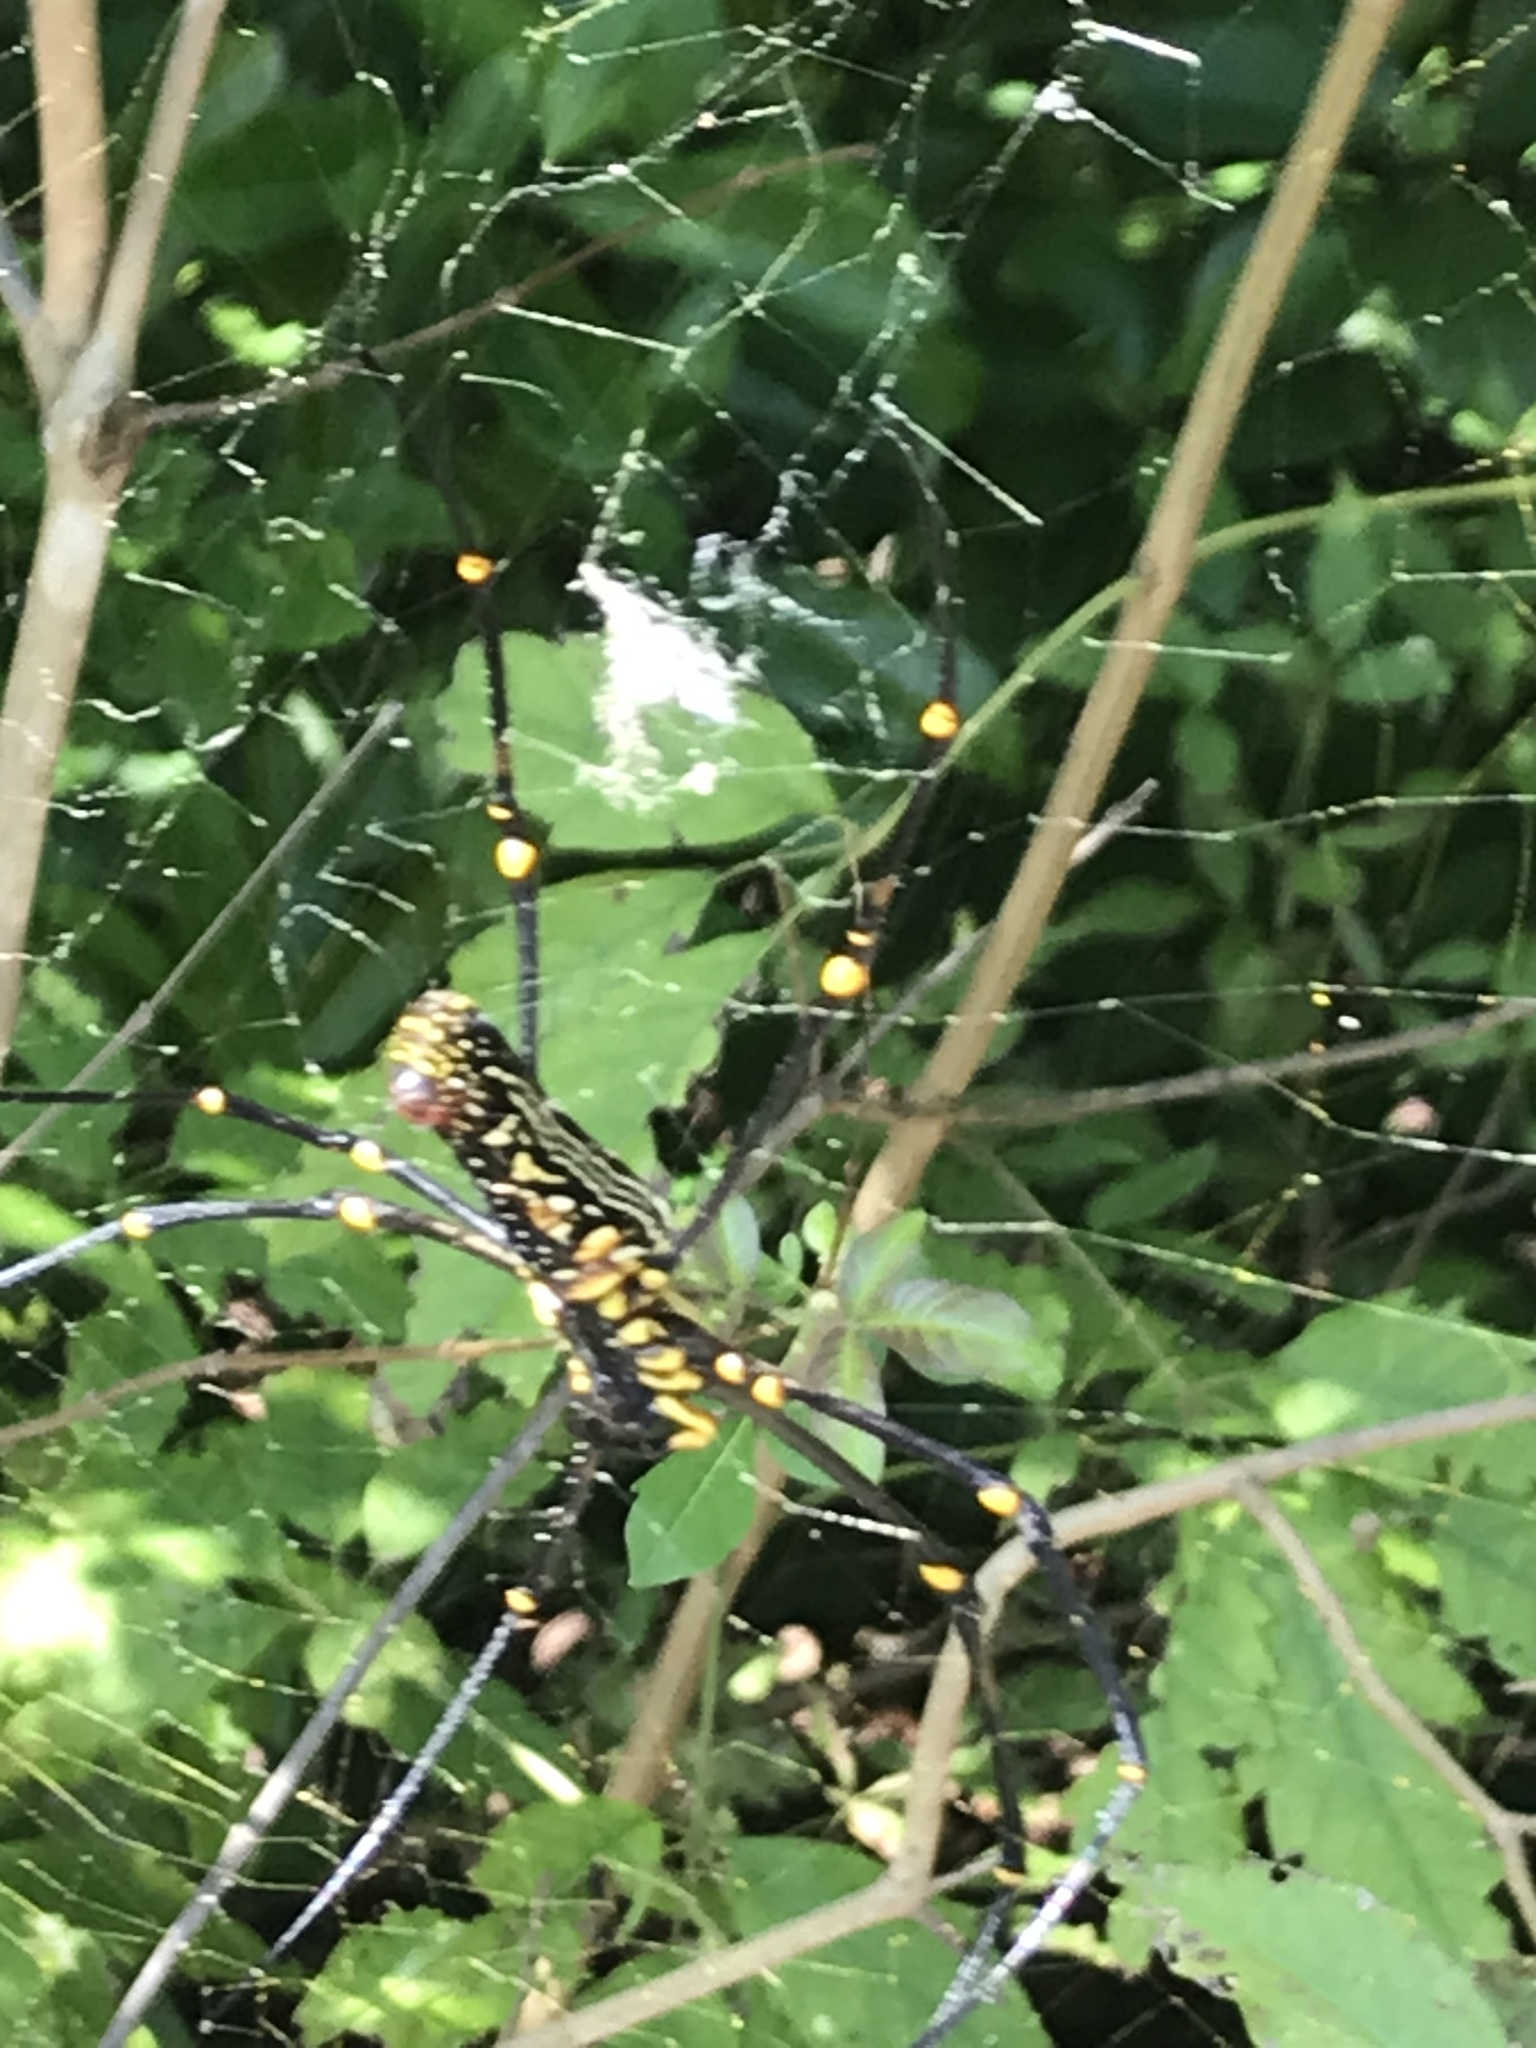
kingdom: Animalia
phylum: Arthropoda
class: Arachnida
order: Araneae
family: Araneidae
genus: Nephila
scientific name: Nephila pilipes
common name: Giant golden orb weaver
